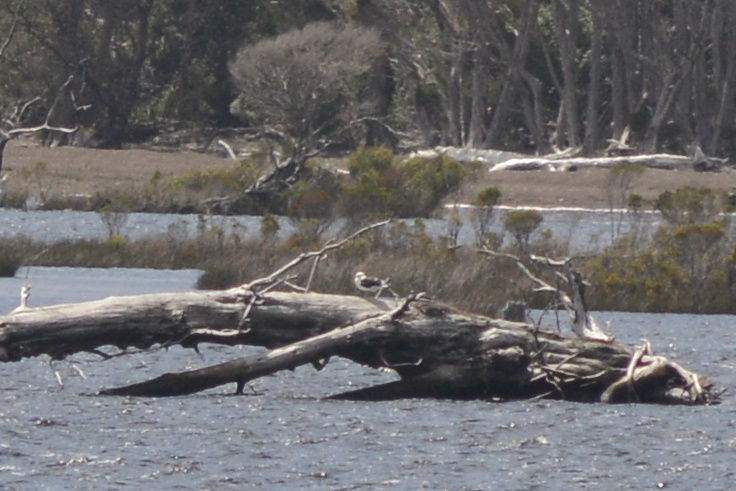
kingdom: Animalia
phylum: Chordata
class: Aves
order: Charadriiformes
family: Laridae
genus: Larus
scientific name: Larus dominicanus
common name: Kelp gull
